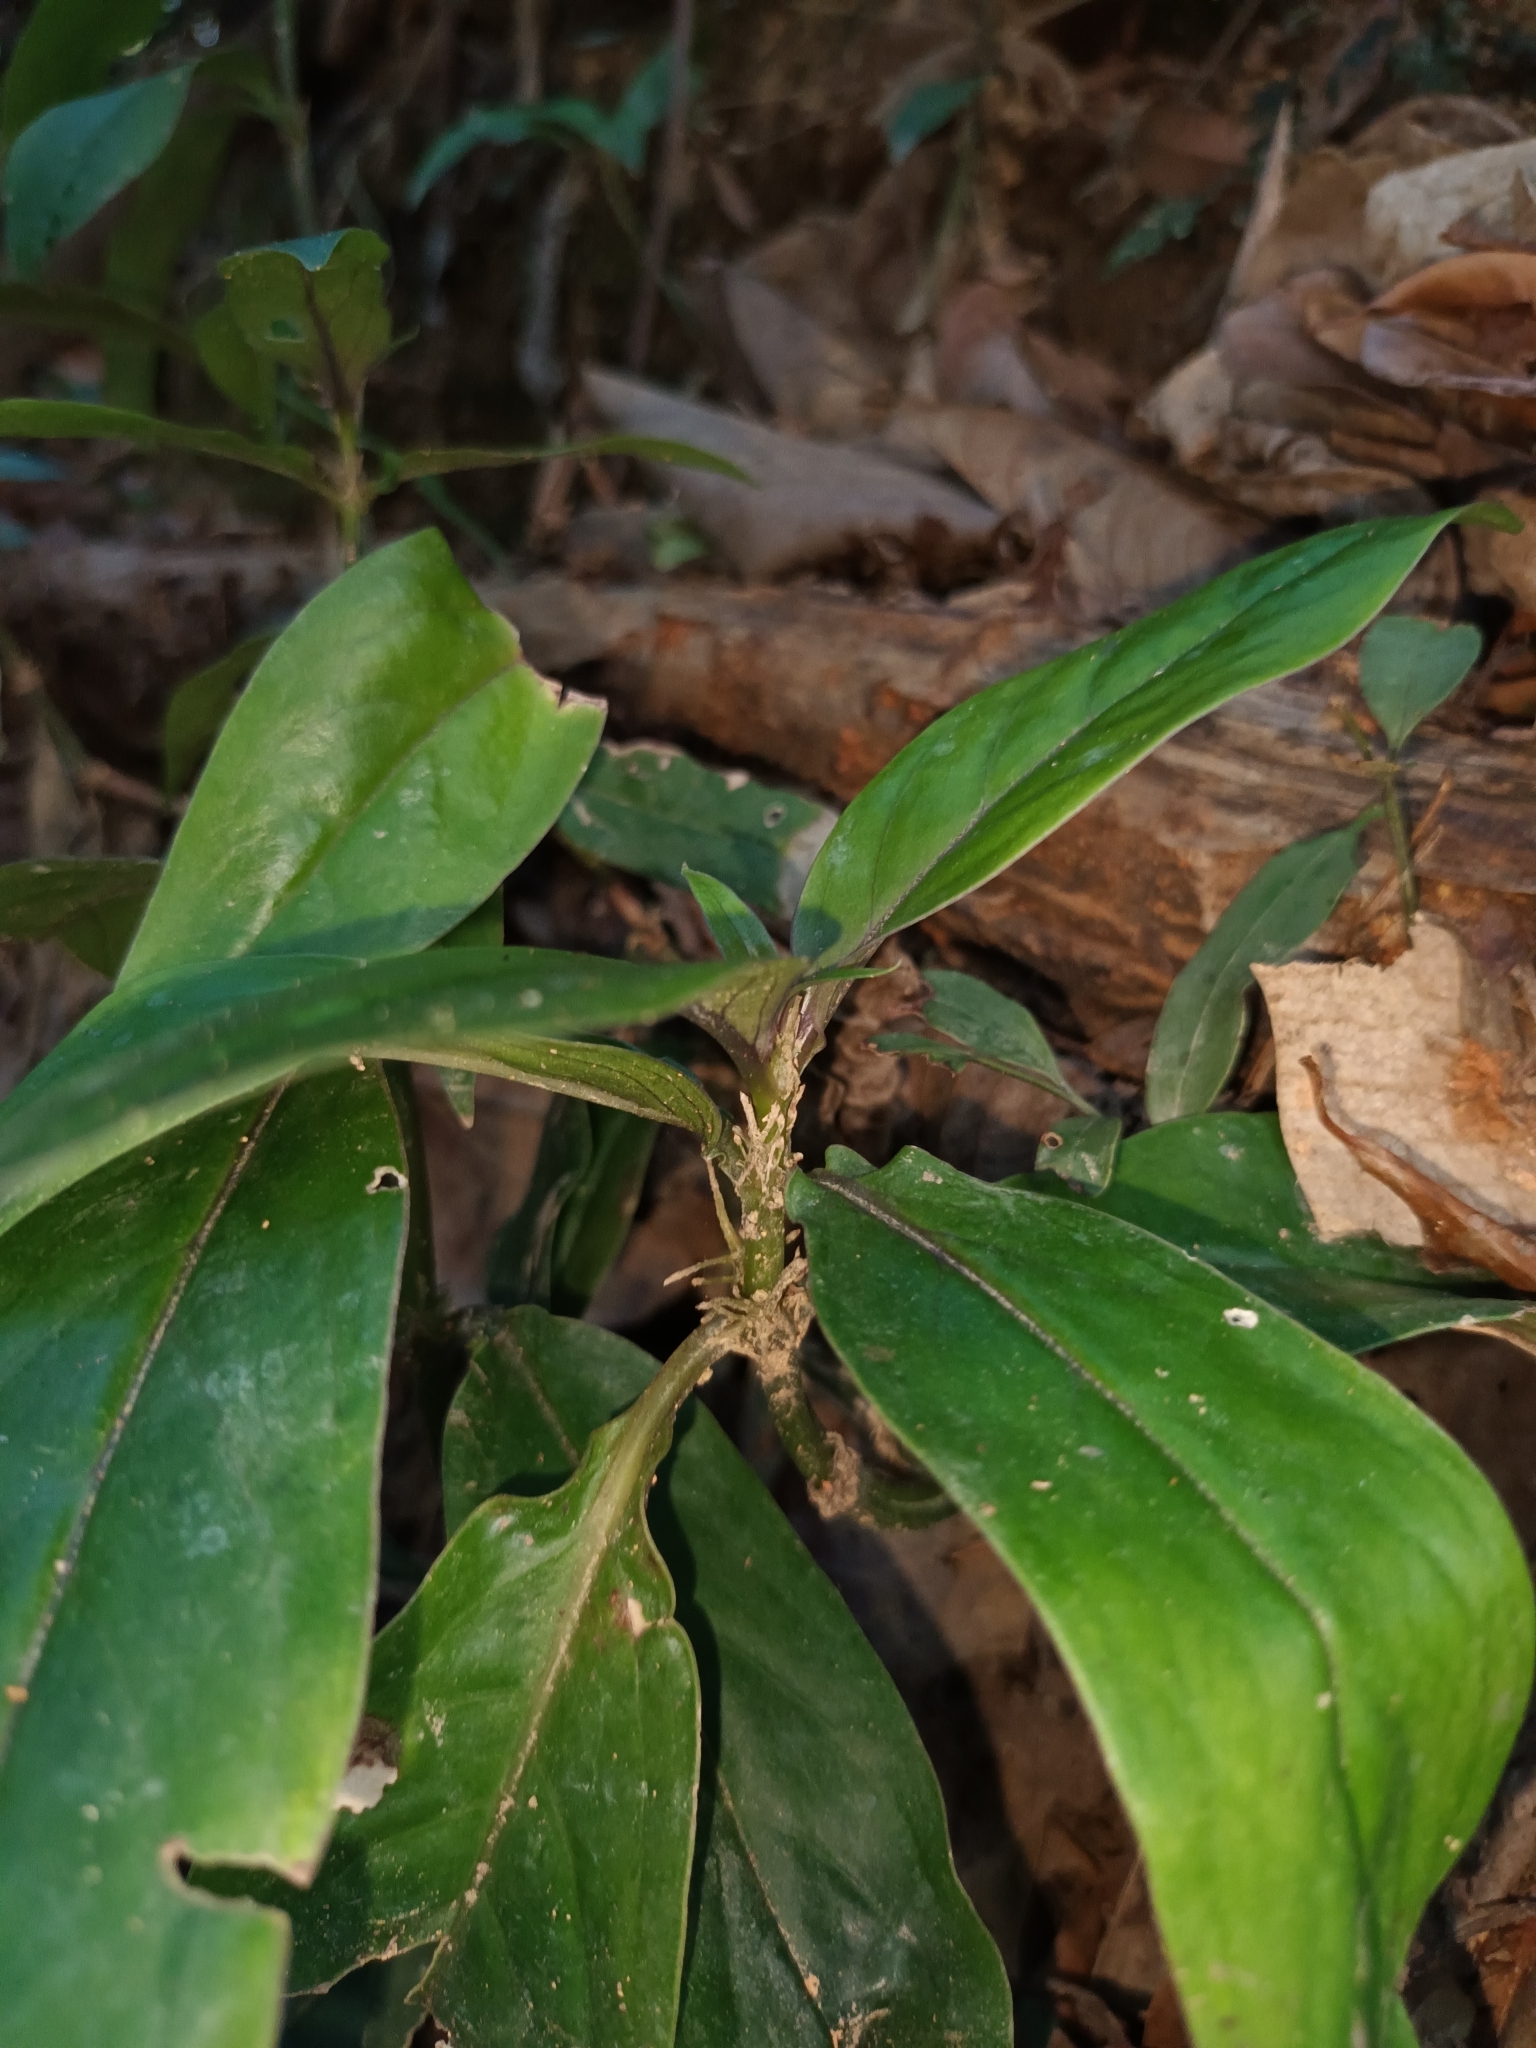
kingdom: Plantae
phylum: Tracheophyta
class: Magnoliopsida
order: Gentianales
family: Rubiaceae
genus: Exallage
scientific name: Exallage cristata
